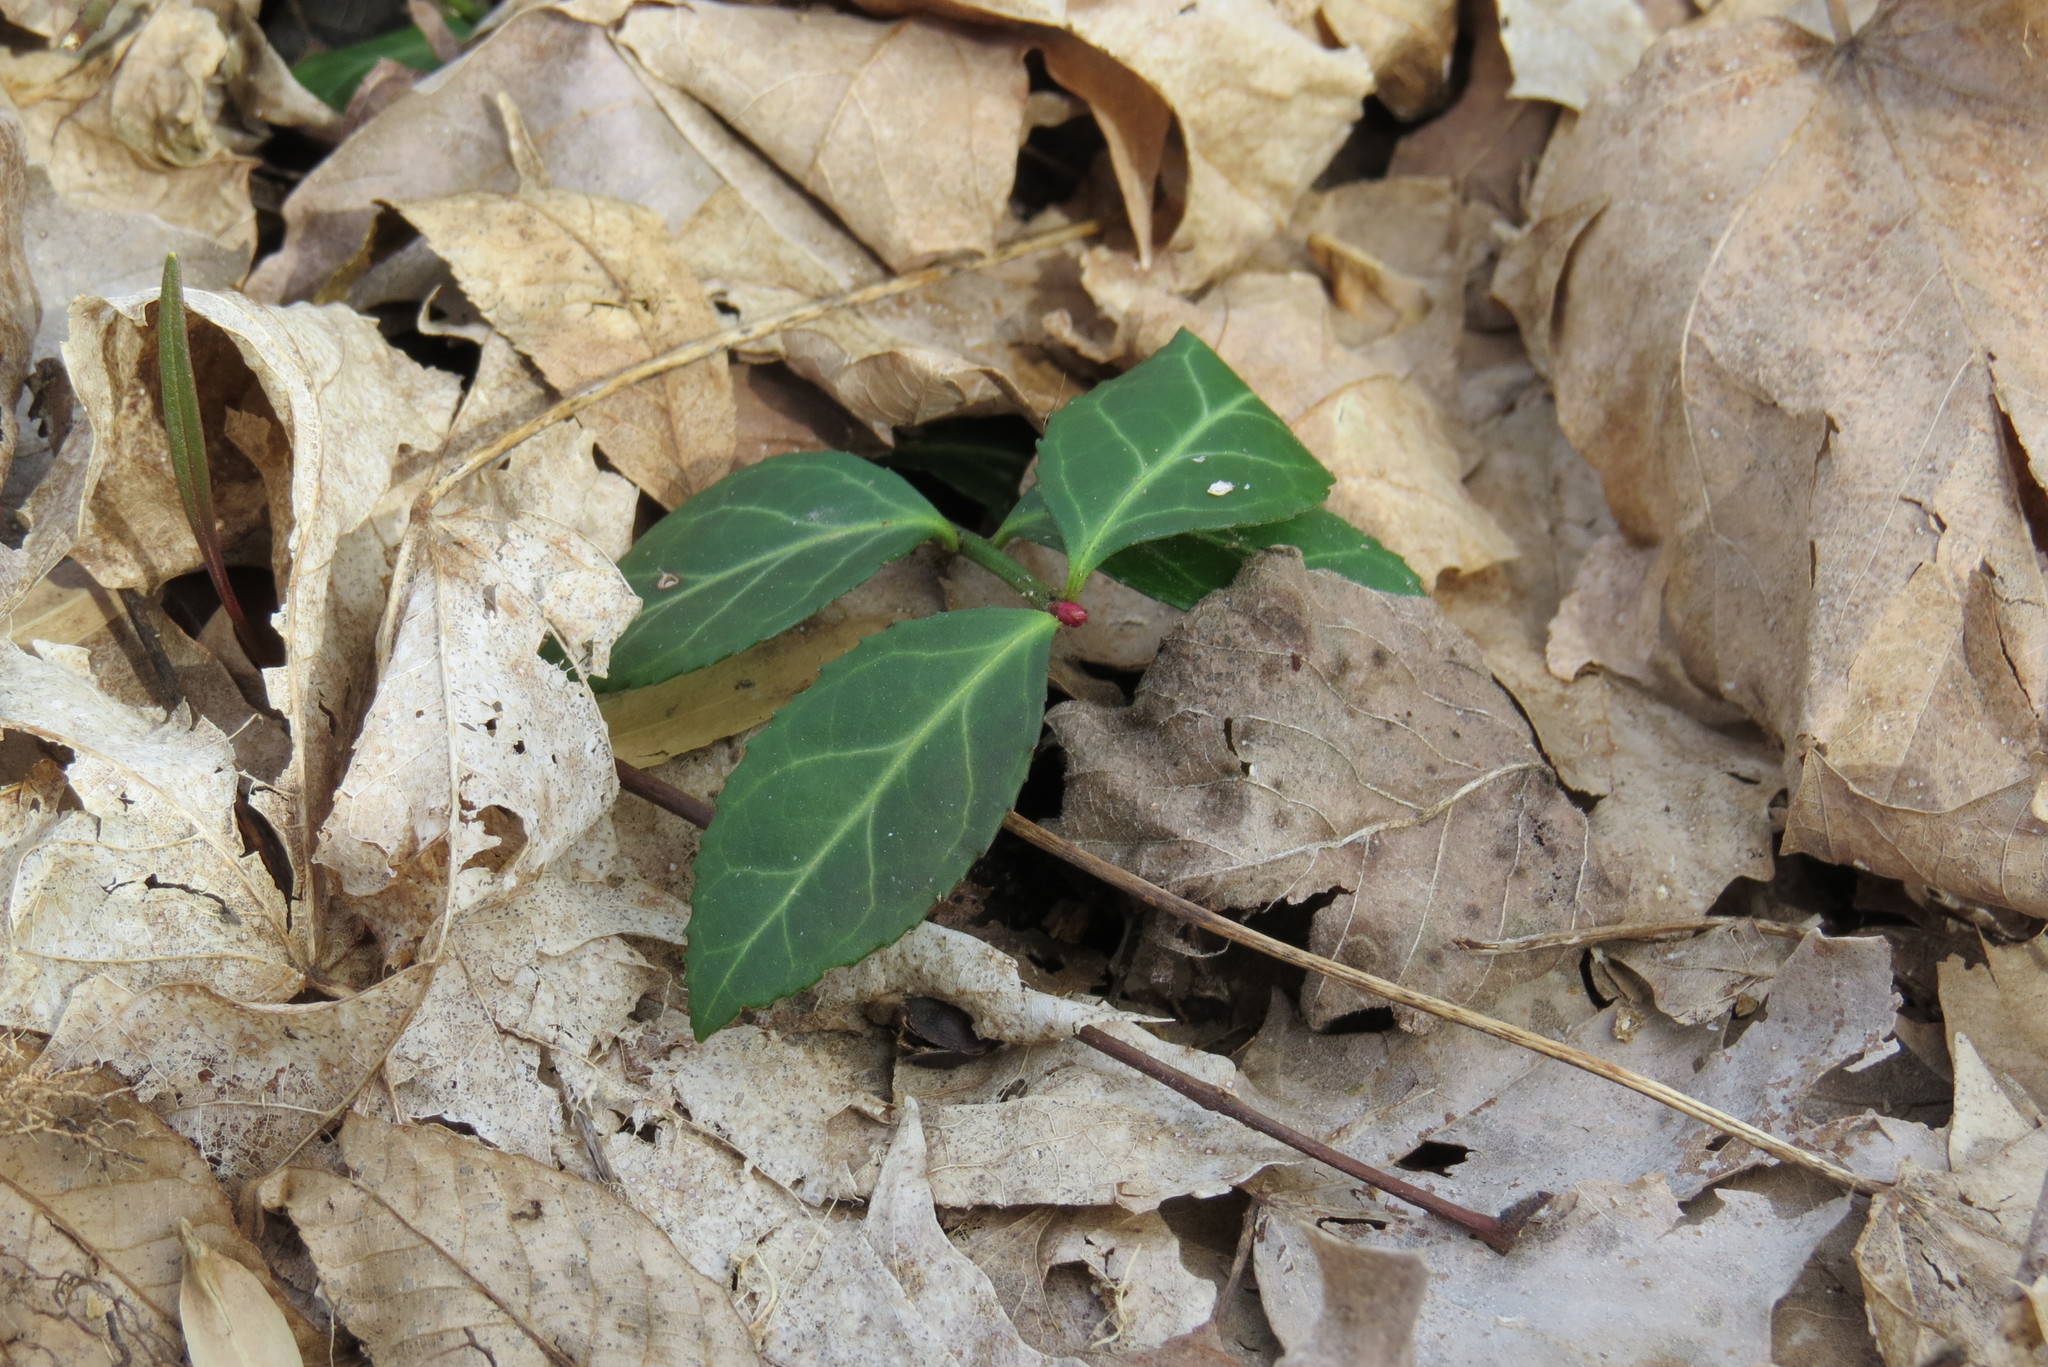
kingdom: Plantae
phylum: Tracheophyta
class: Magnoliopsida
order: Celastrales
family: Celastraceae
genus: Euonymus
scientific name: Euonymus fortunei
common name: Climbing euonymus
